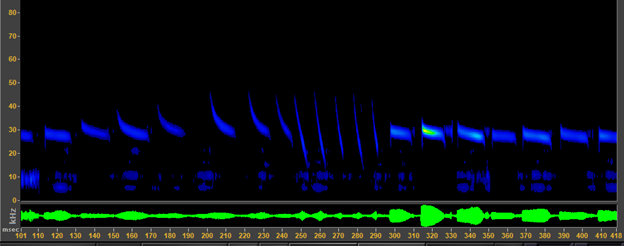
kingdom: Animalia
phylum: Chordata
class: Mammalia
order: Chiroptera
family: Molossidae
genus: Tadarida
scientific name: Tadarida brasiliensis
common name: Mexican free-tailed bat
